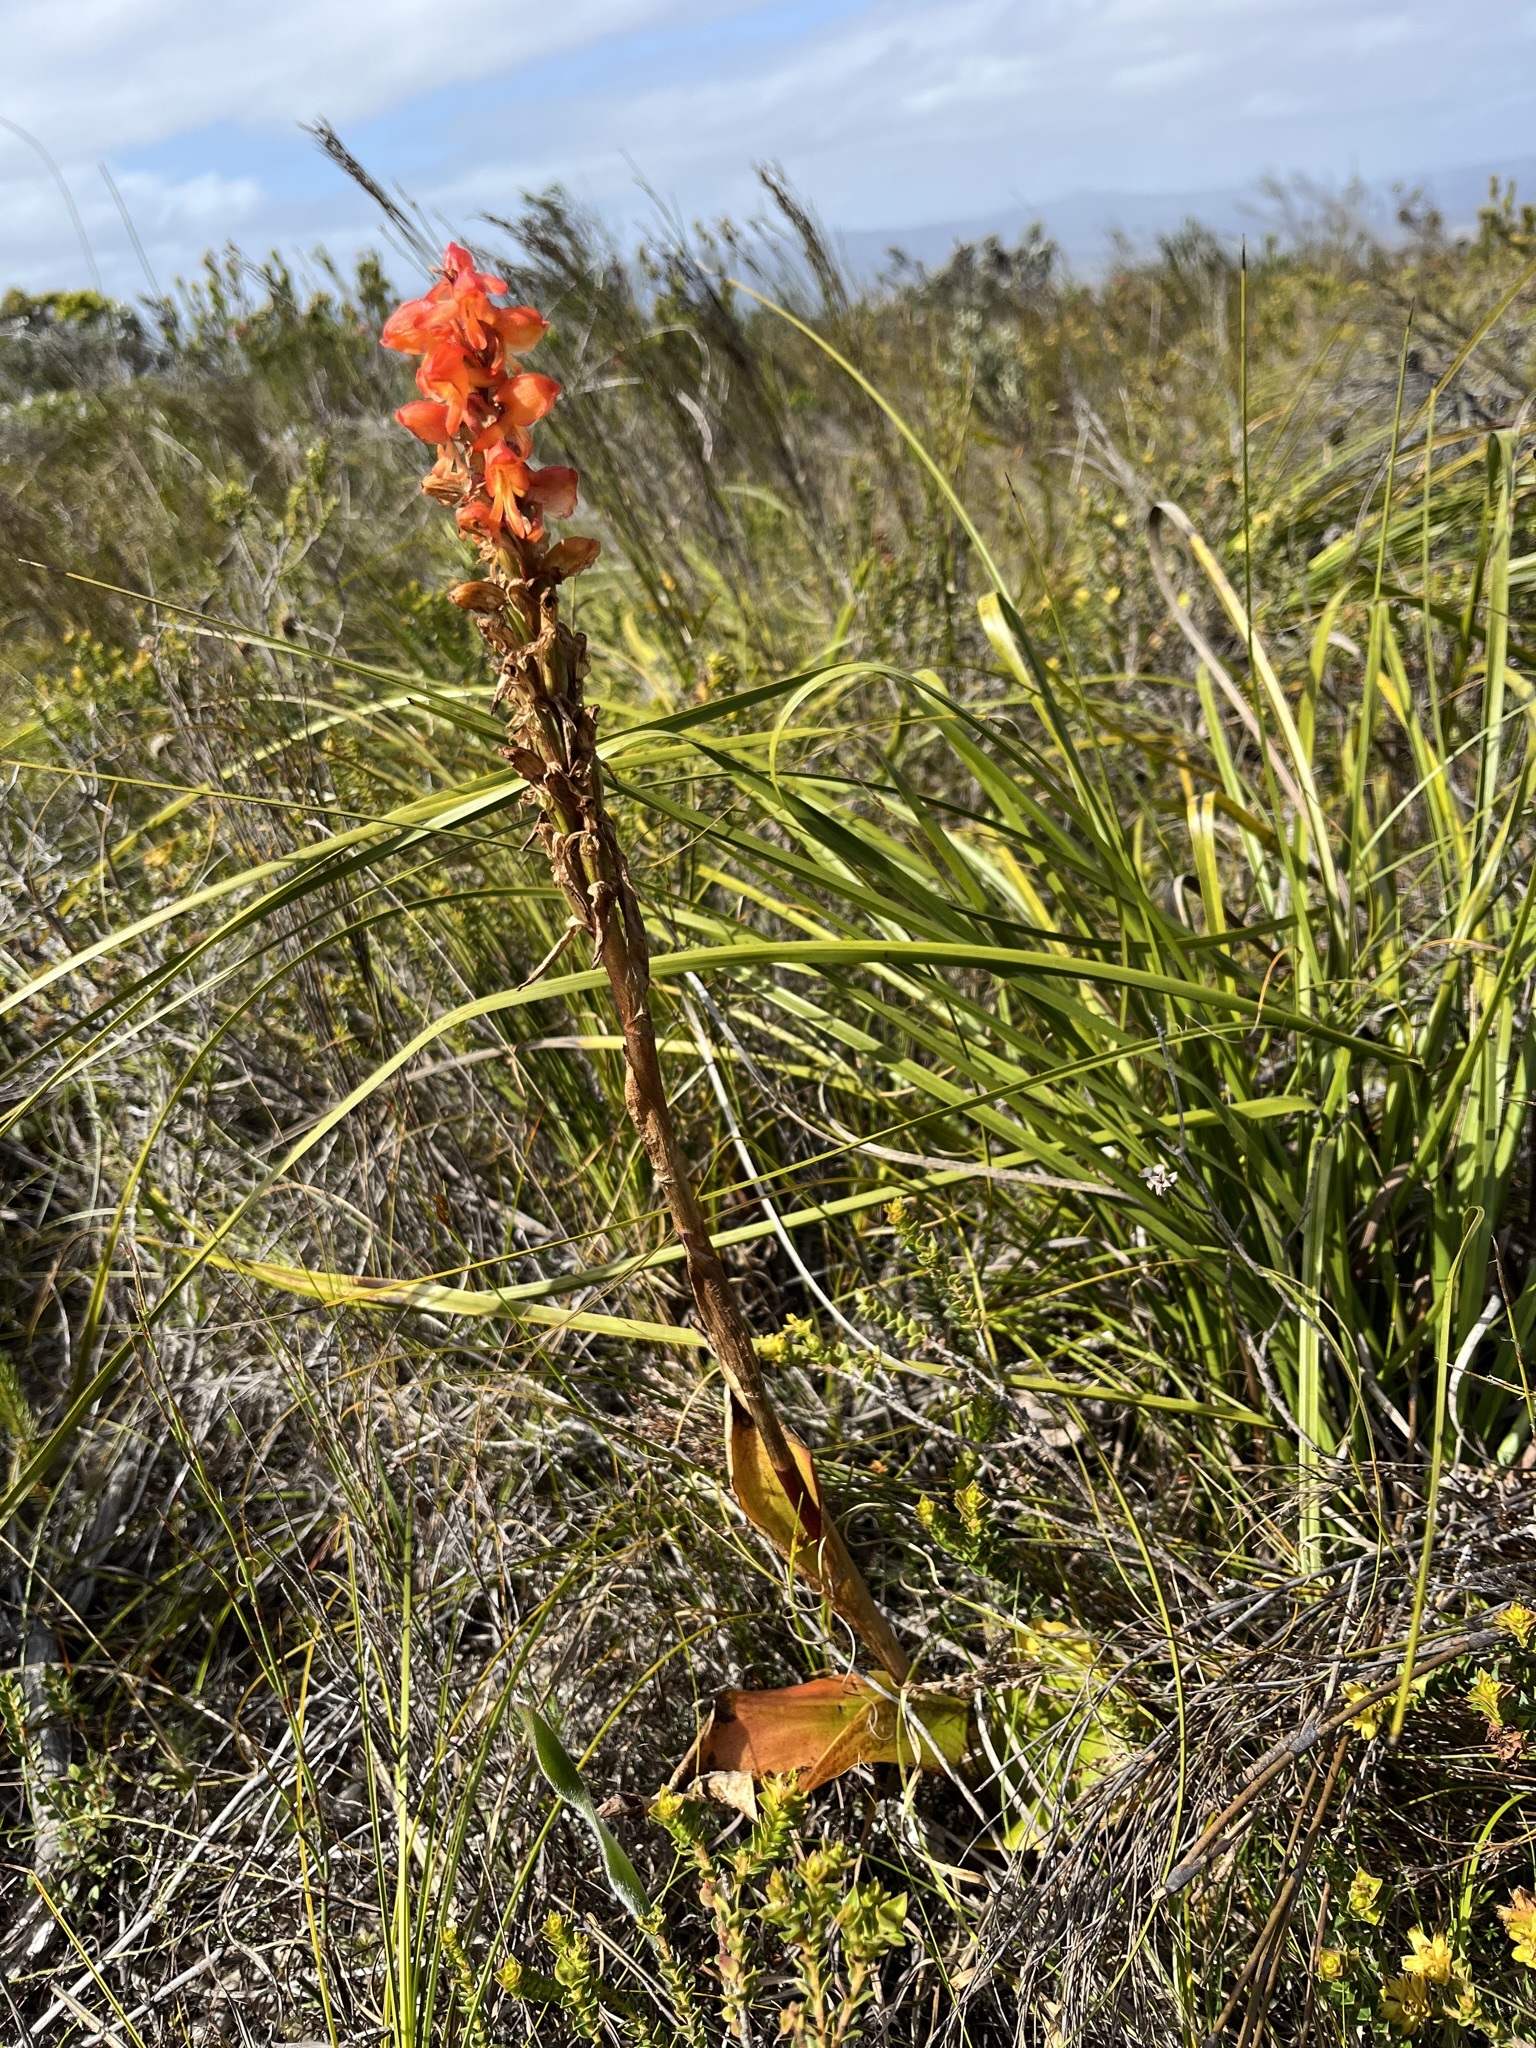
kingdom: Plantae
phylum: Tracheophyta
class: Liliopsida
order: Asparagales
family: Orchidaceae
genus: Satyrium
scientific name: Satyrium coriifolium
